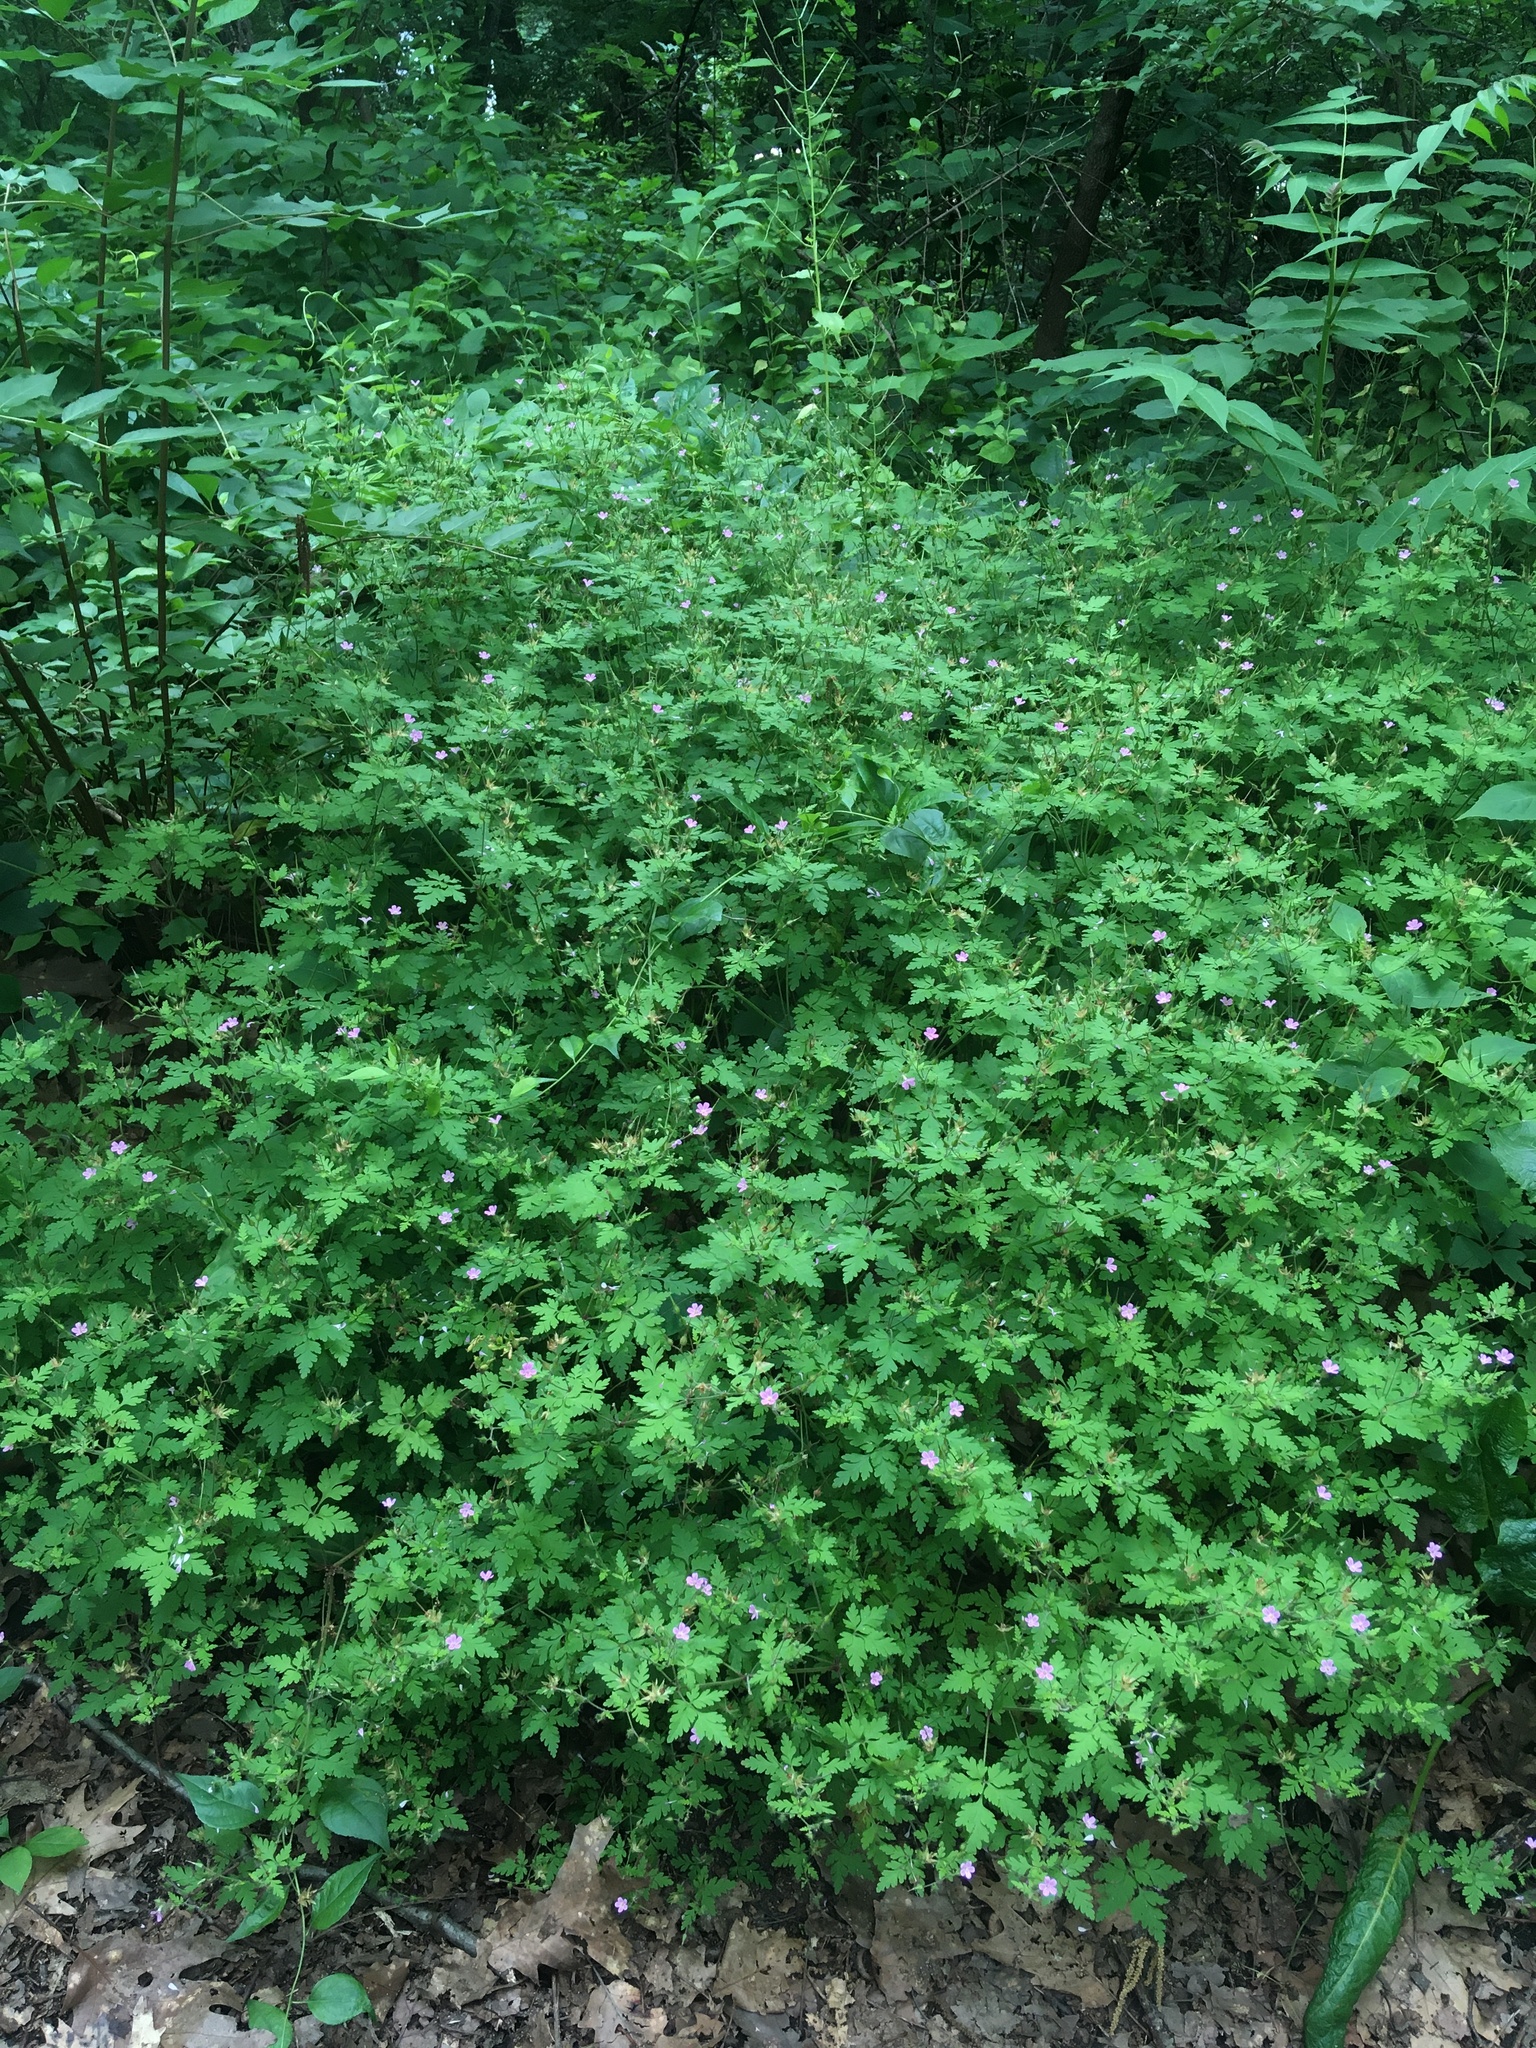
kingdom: Plantae
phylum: Tracheophyta
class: Magnoliopsida
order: Geraniales
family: Geraniaceae
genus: Geranium
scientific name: Geranium robertianum
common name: Herb-robert
